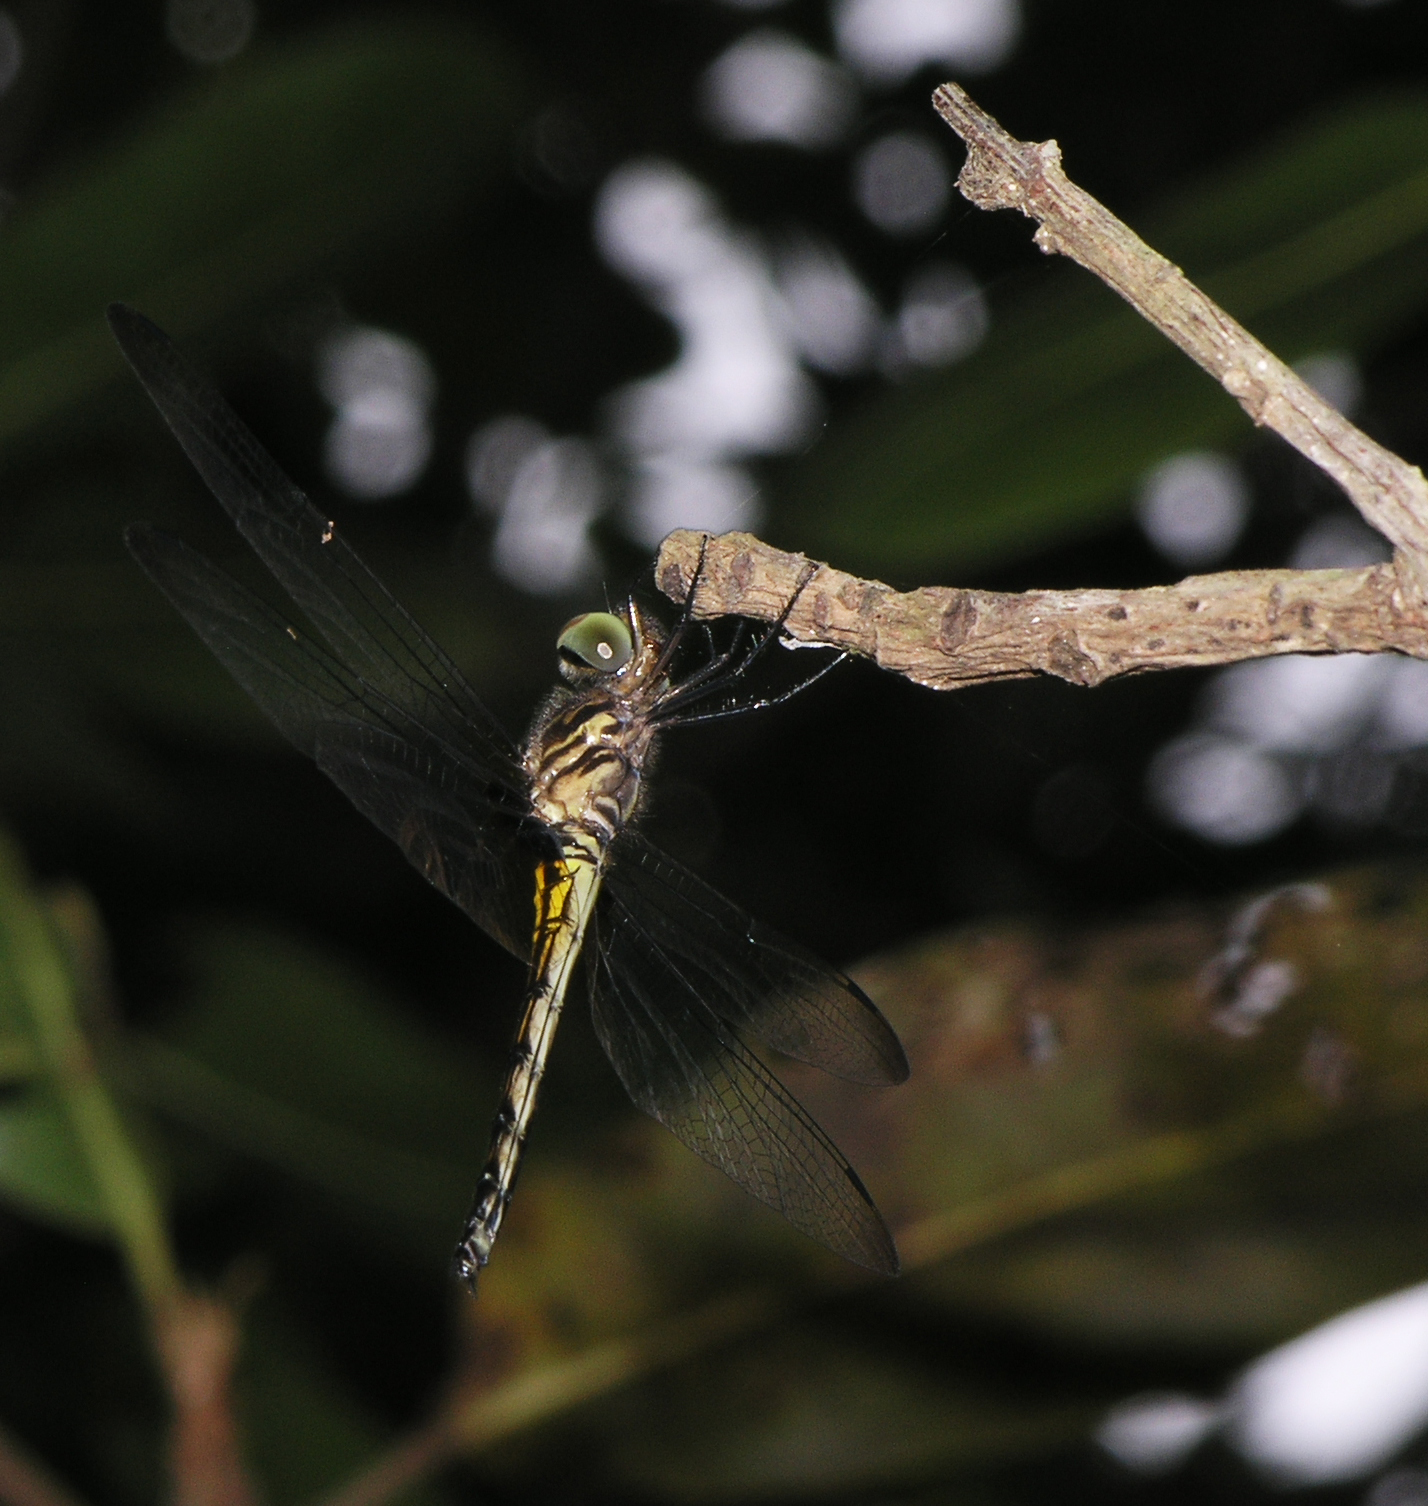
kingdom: Animalia
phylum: Arthropoda
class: Insecta
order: Odonata
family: Libellulidae
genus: Pseudothemis
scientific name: Pseudothemis jorina
